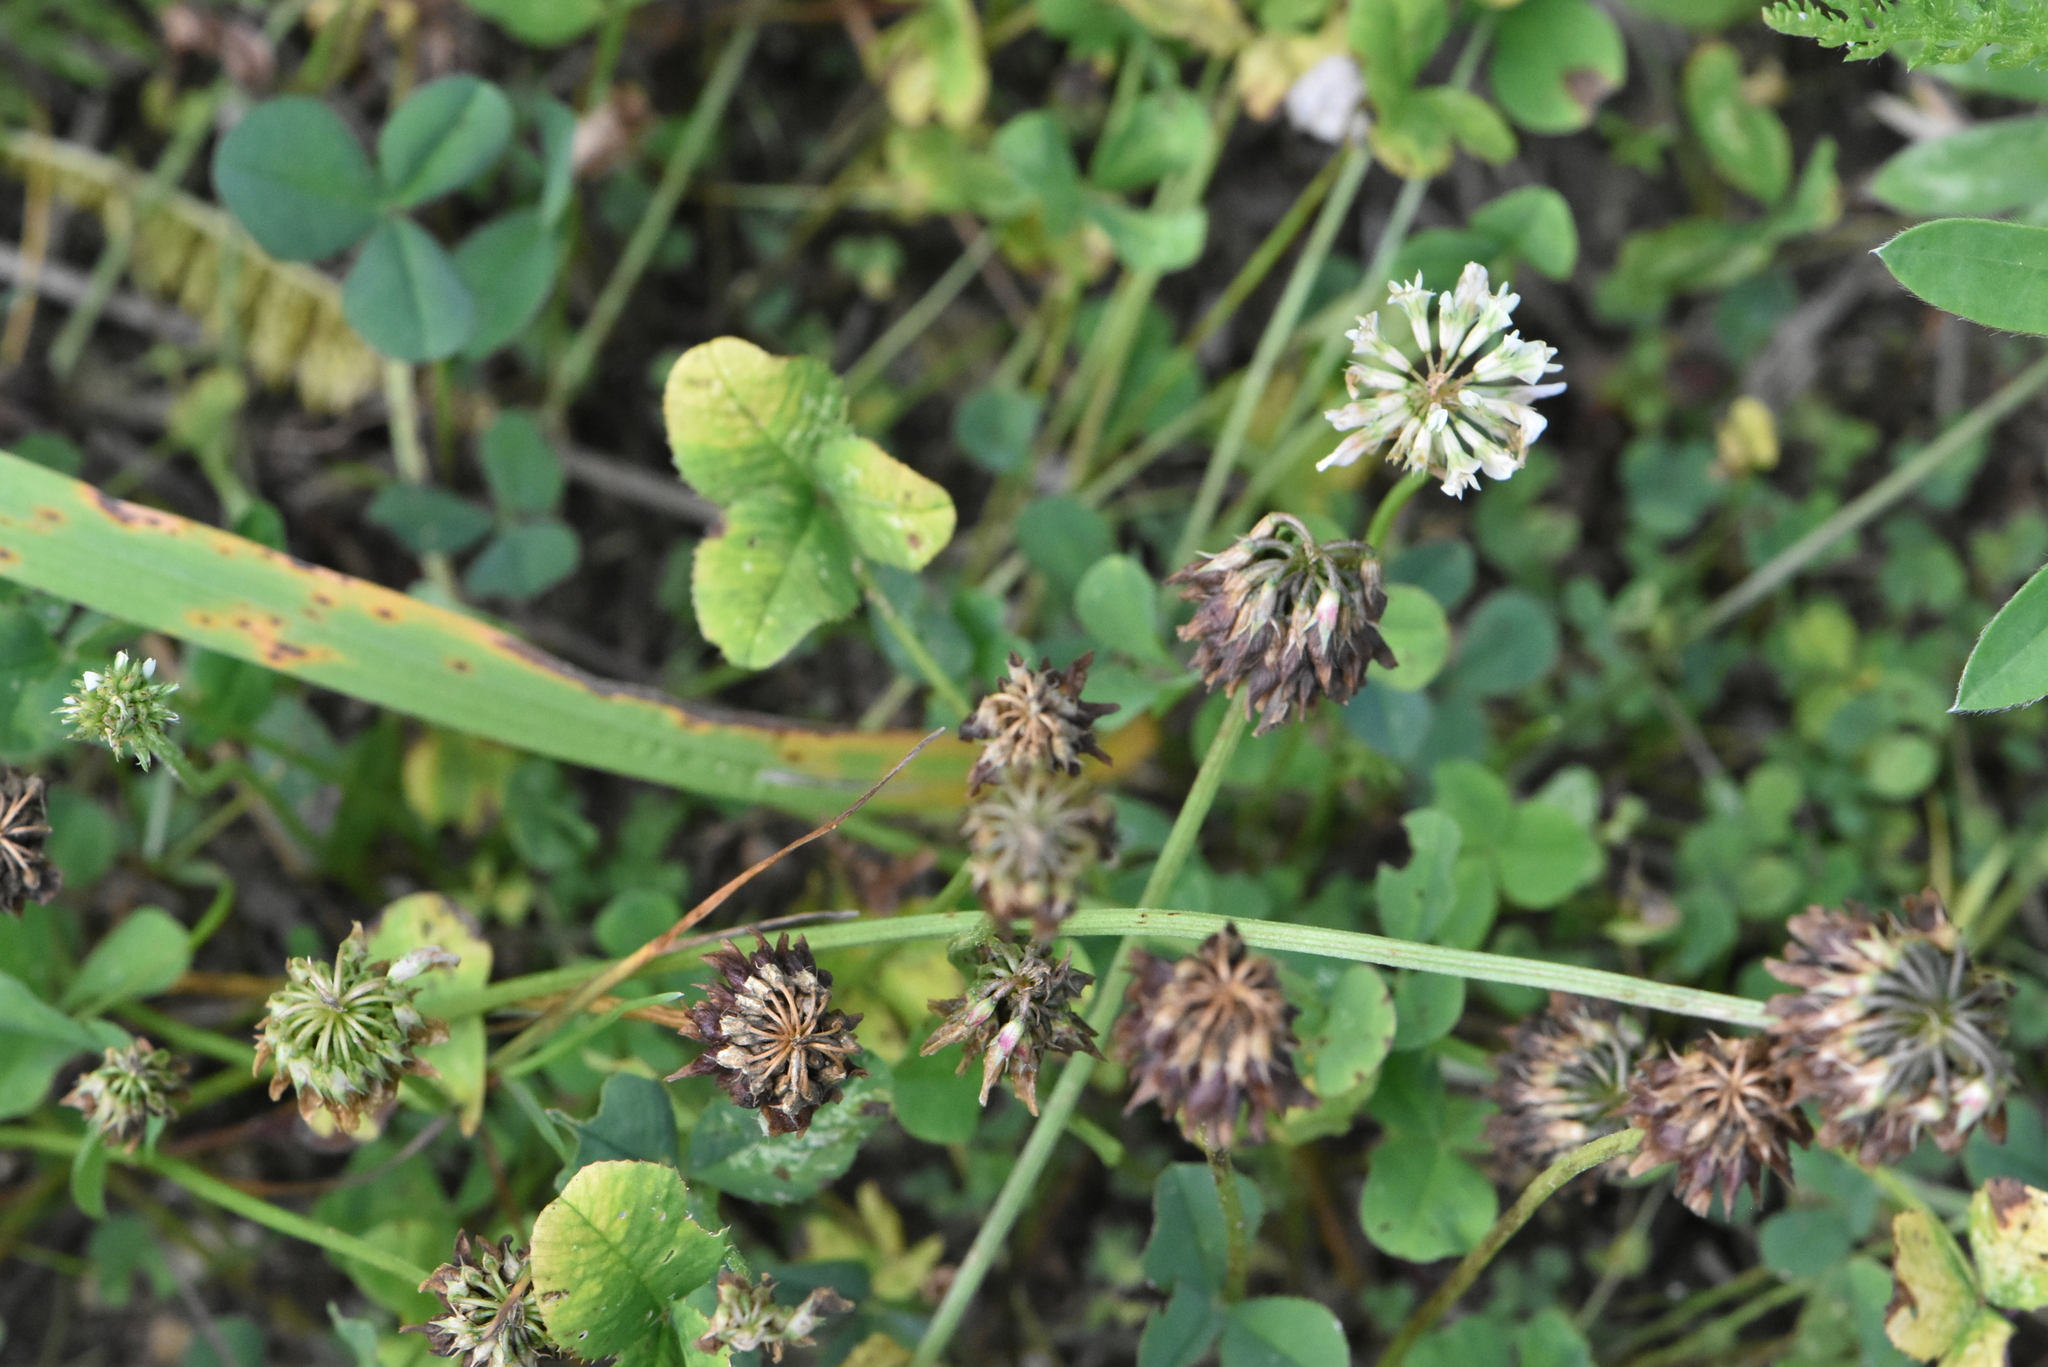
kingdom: Plantae
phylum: Tracheophyta
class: Magnoliopsida
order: Fabales
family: Fabaceae
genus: Trifolium
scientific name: Trifolium repens
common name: White clover
